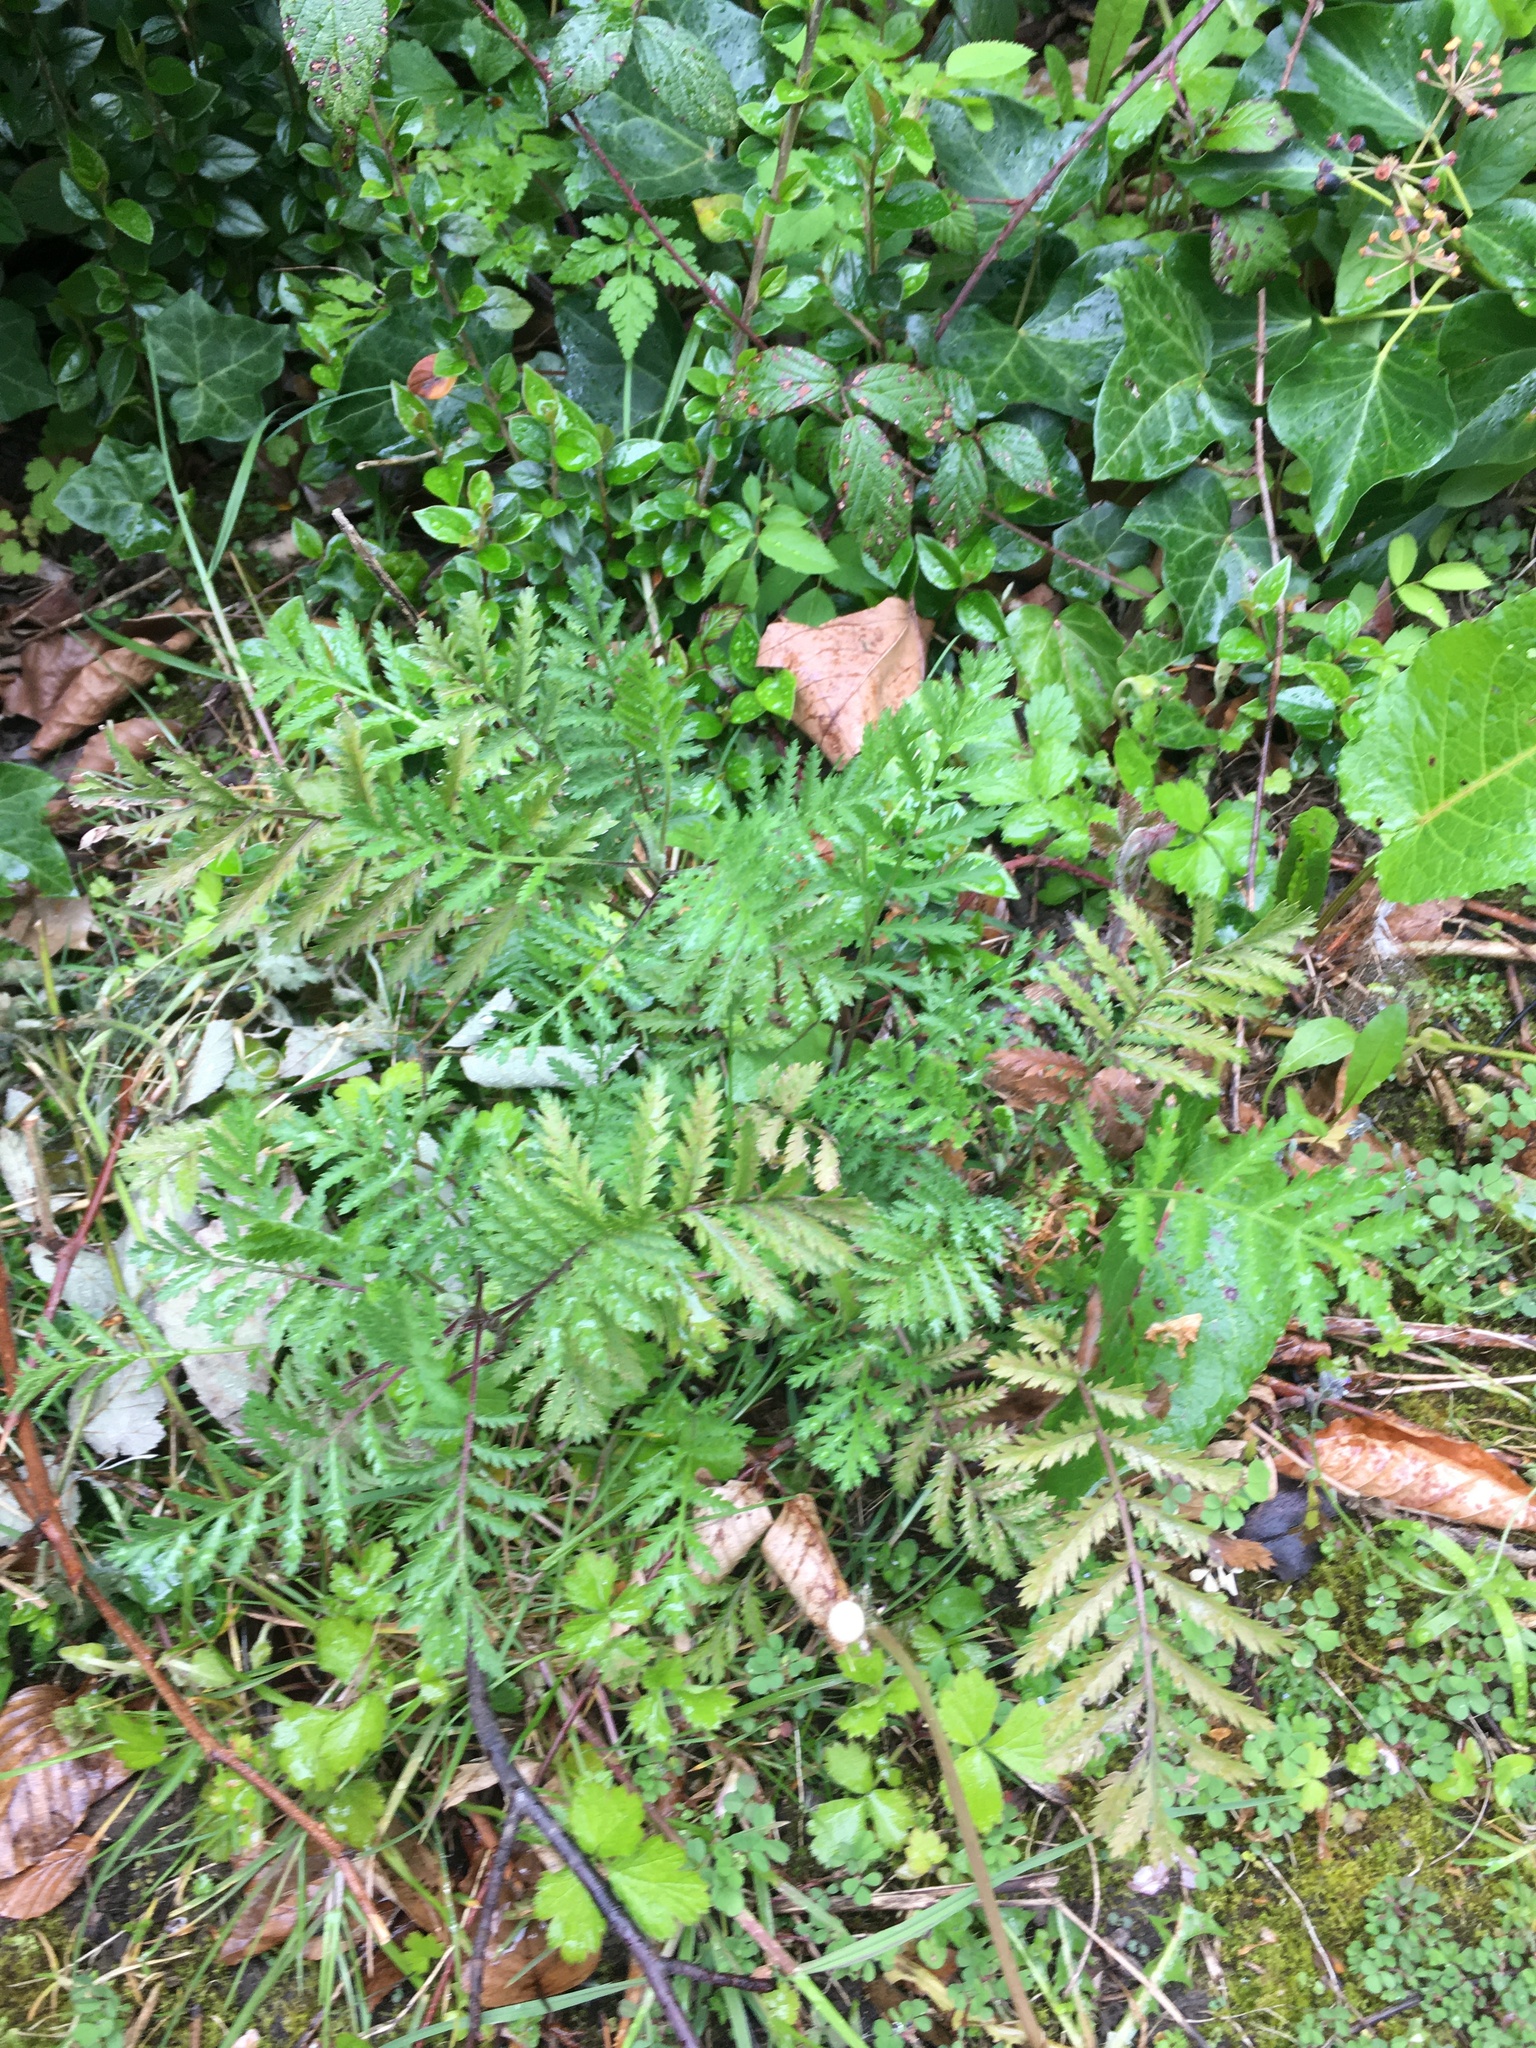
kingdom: Plantae
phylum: Tracheophyta
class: Magnoliopsida
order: Asterales
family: Asteraceae
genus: Tanacetum
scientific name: Tanacetum vulgare
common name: Common tansy
